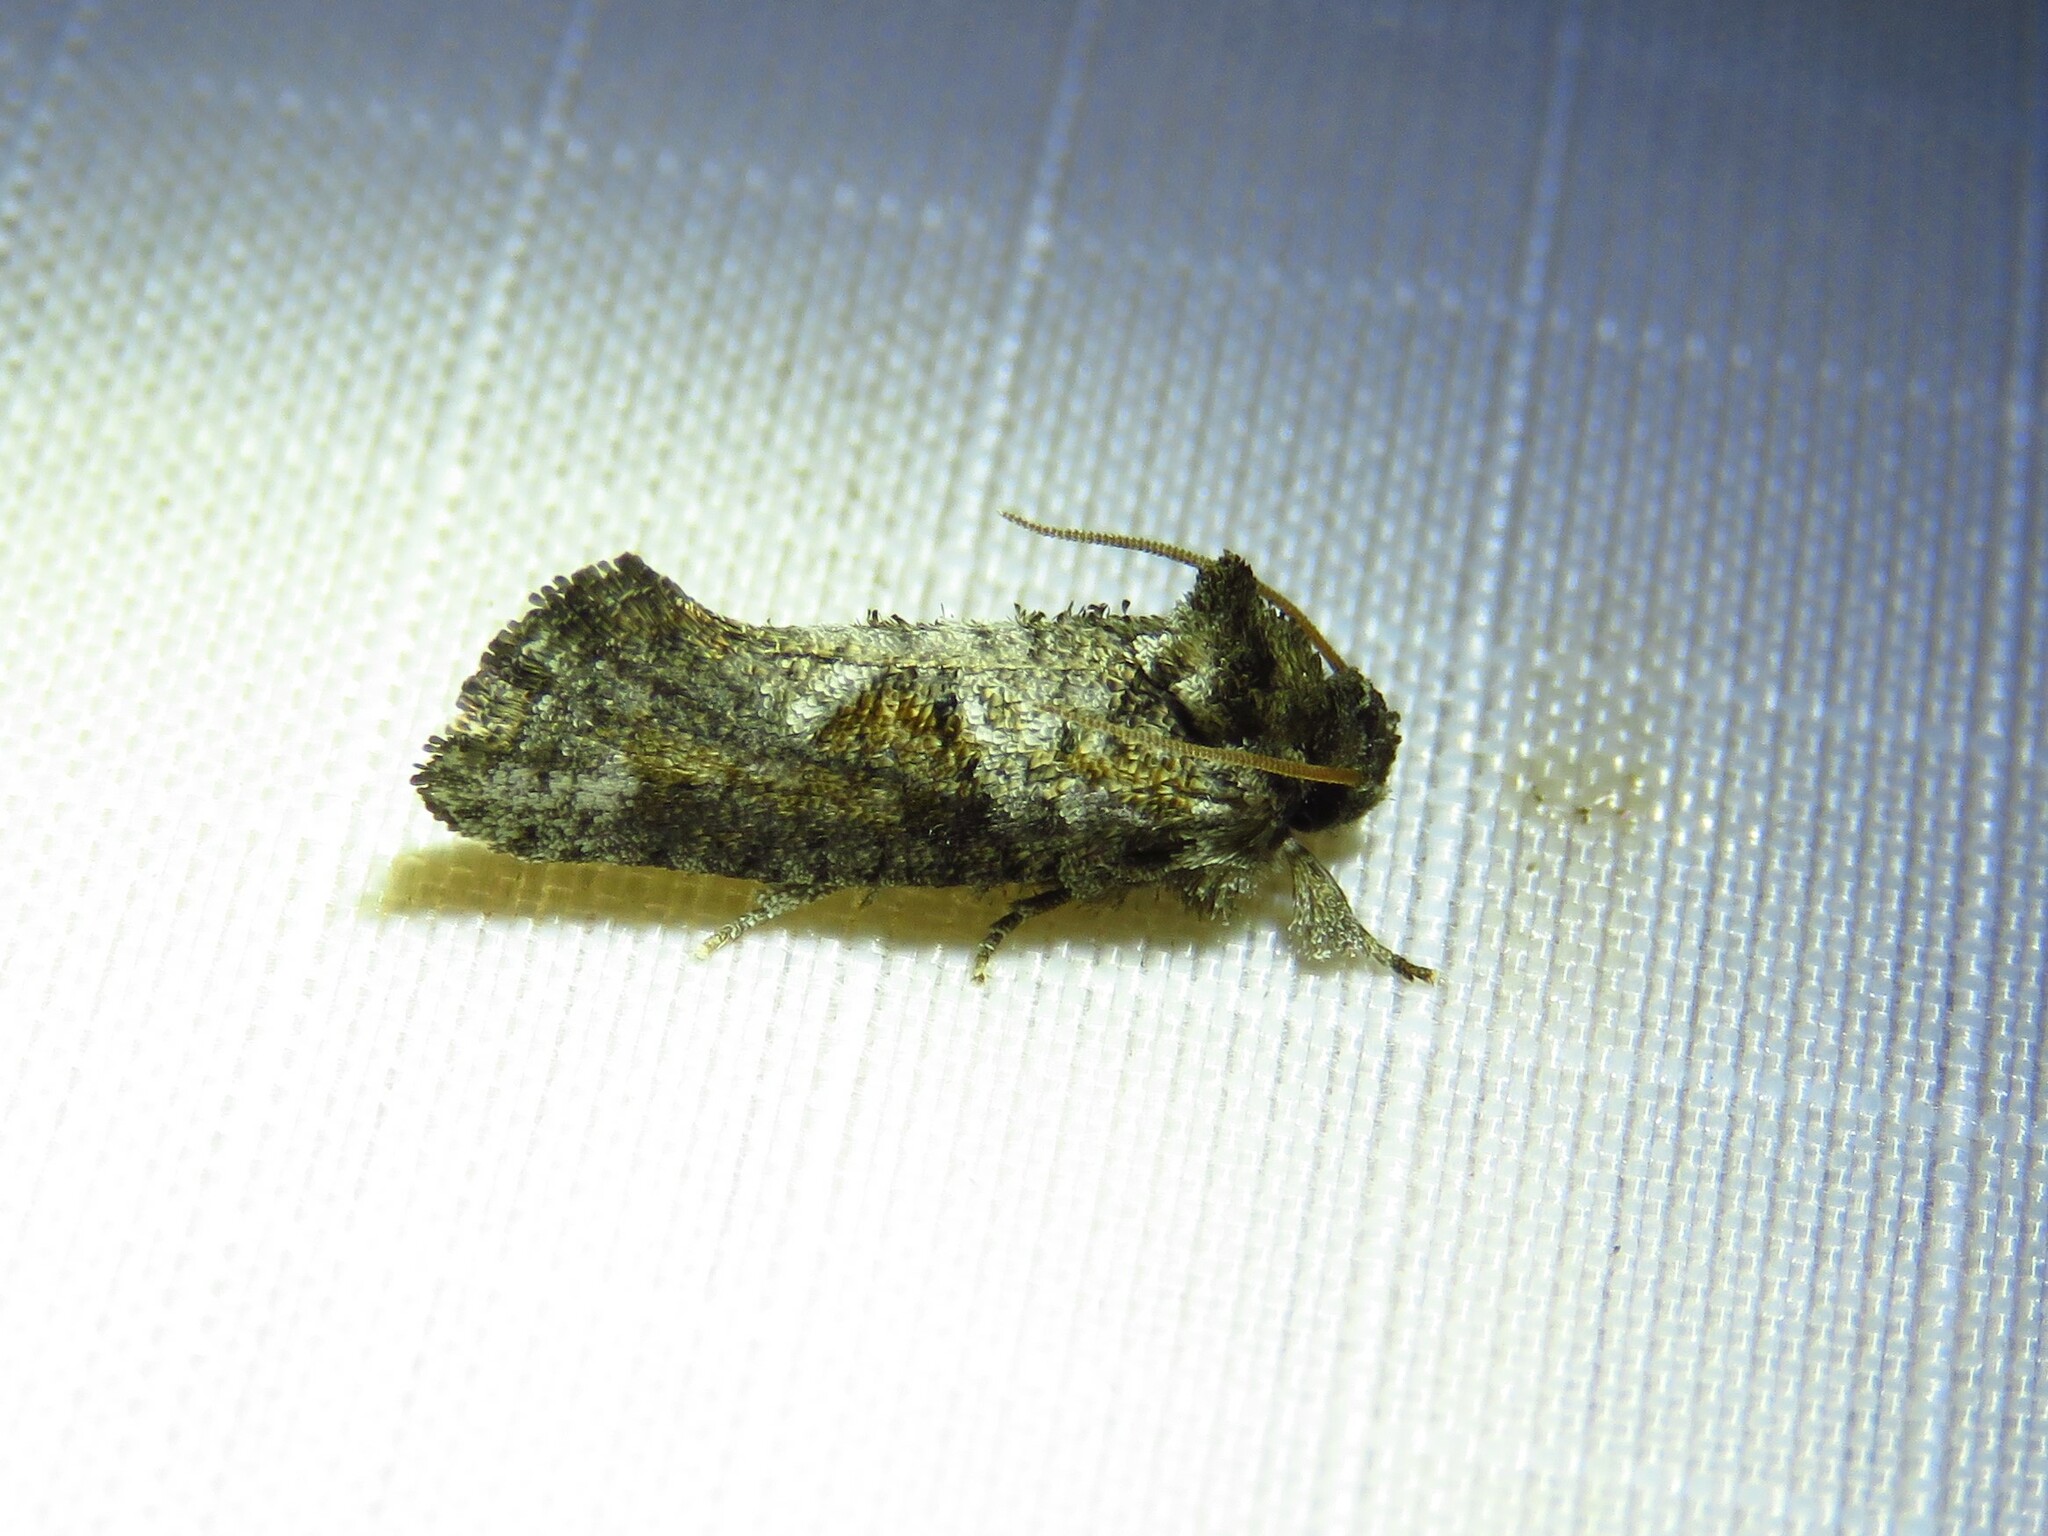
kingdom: Animalia
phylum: Arthropoda
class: Insecta
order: Lepidoptera
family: Tineidae
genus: Acrolophus
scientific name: Acrolophus piger
